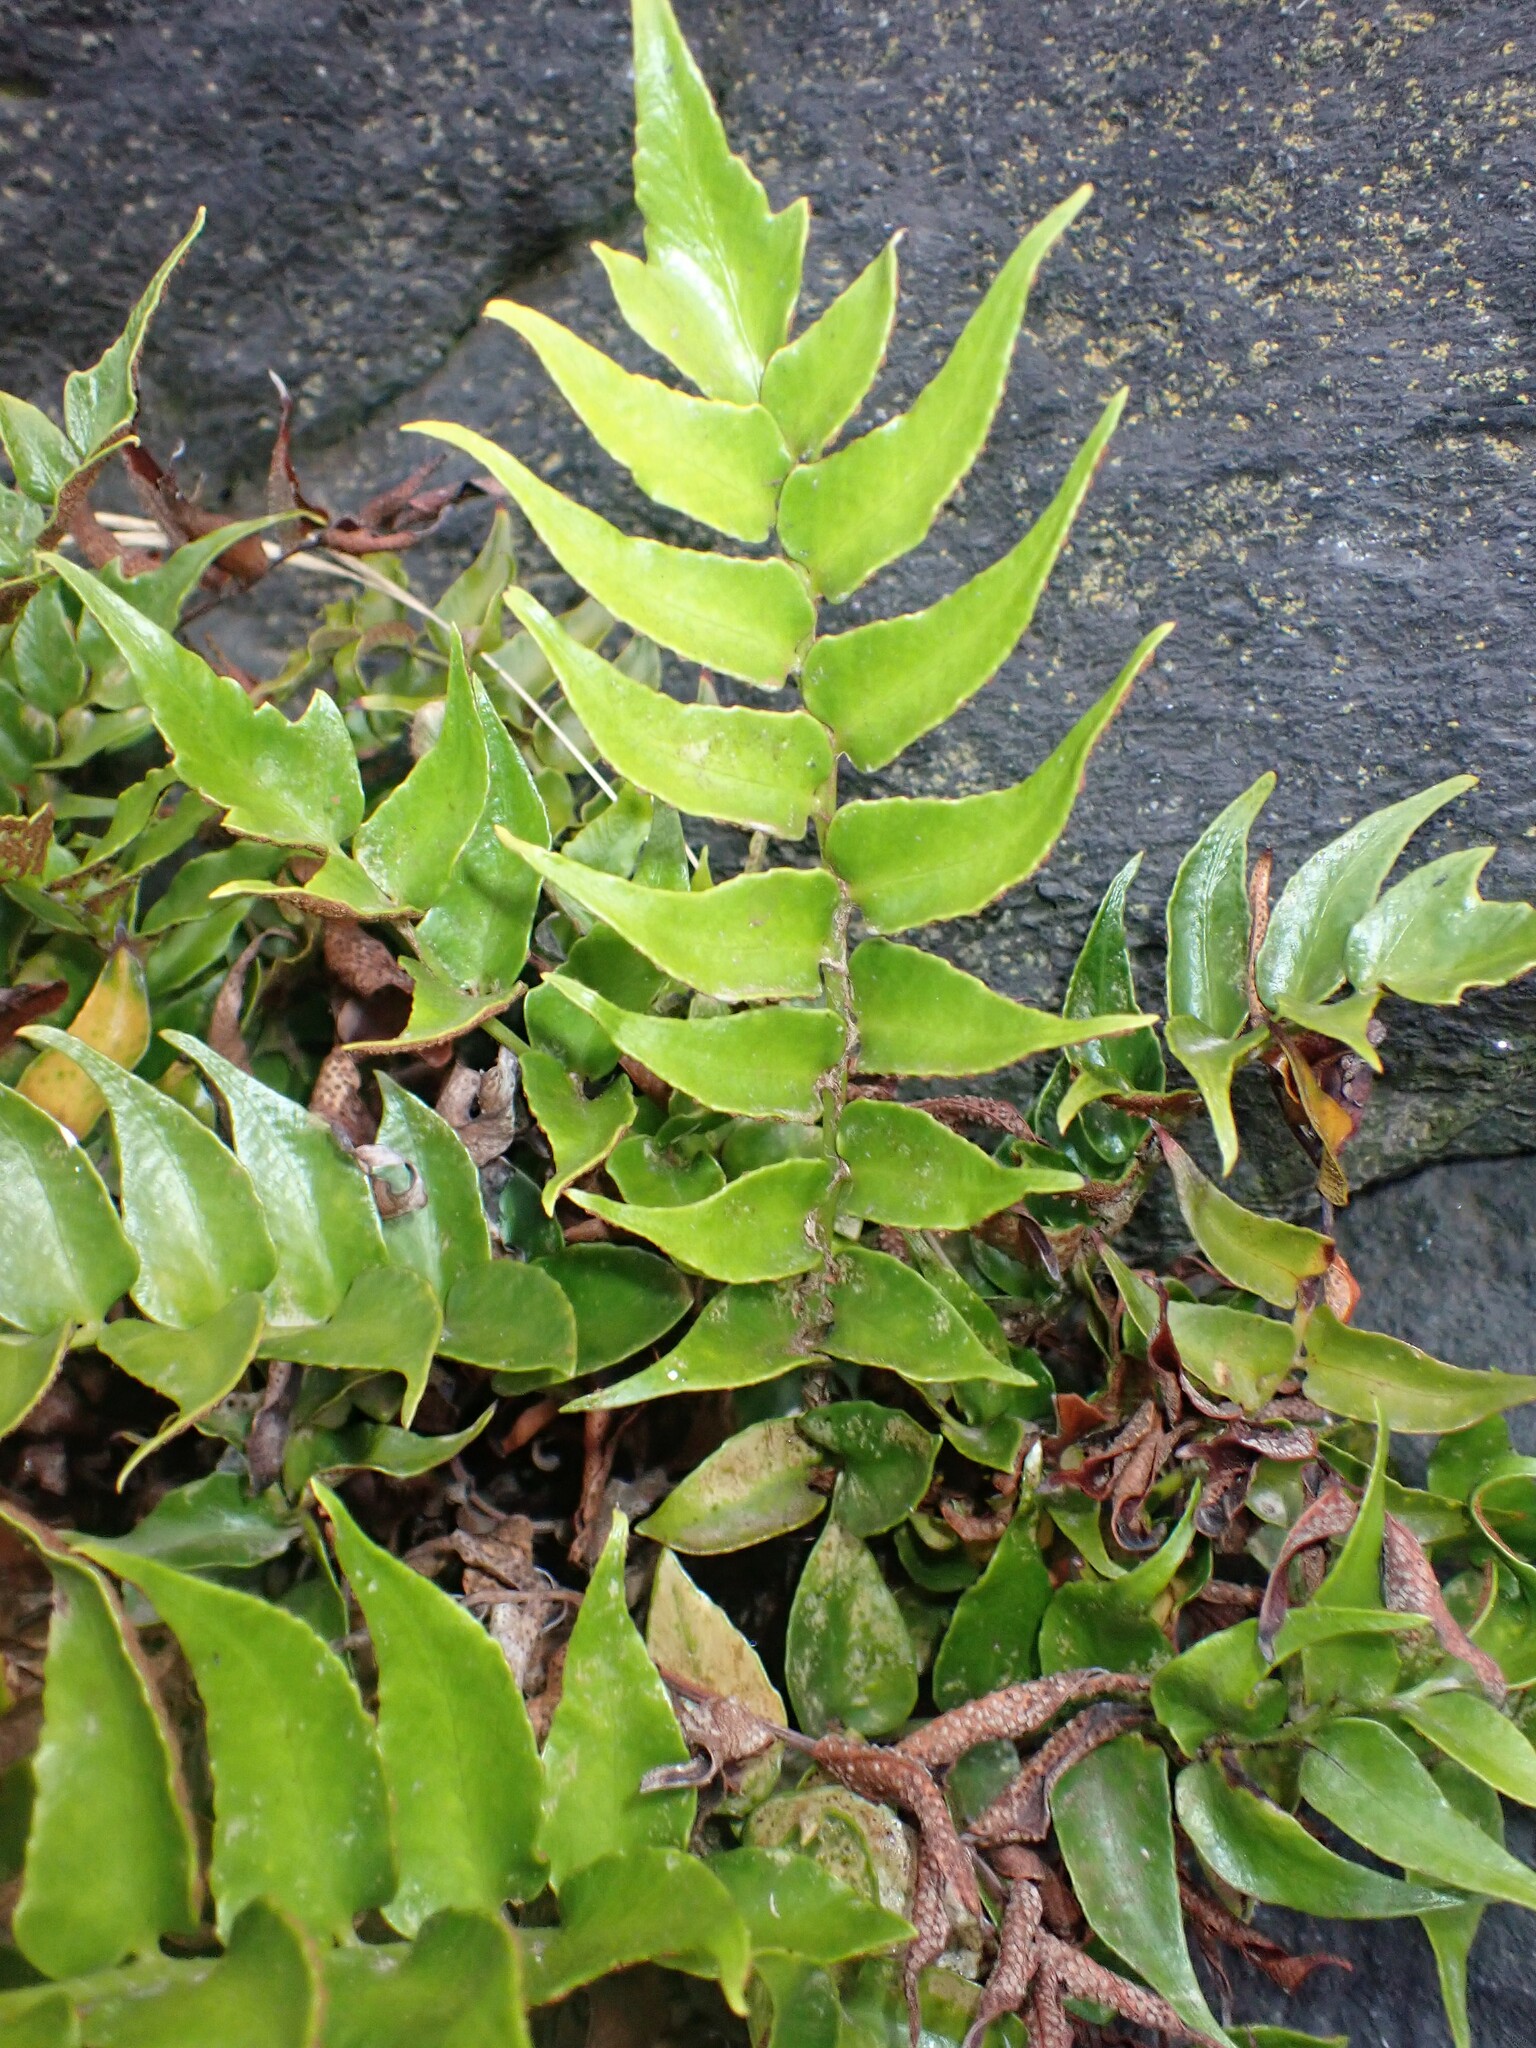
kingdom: Plantae
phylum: Tracheophyta
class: Polypodiopsida
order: Polypodiales
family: Dryopteridaceae
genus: Cyrtomium
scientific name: Cyrtomium falcatum
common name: House holly-fern
